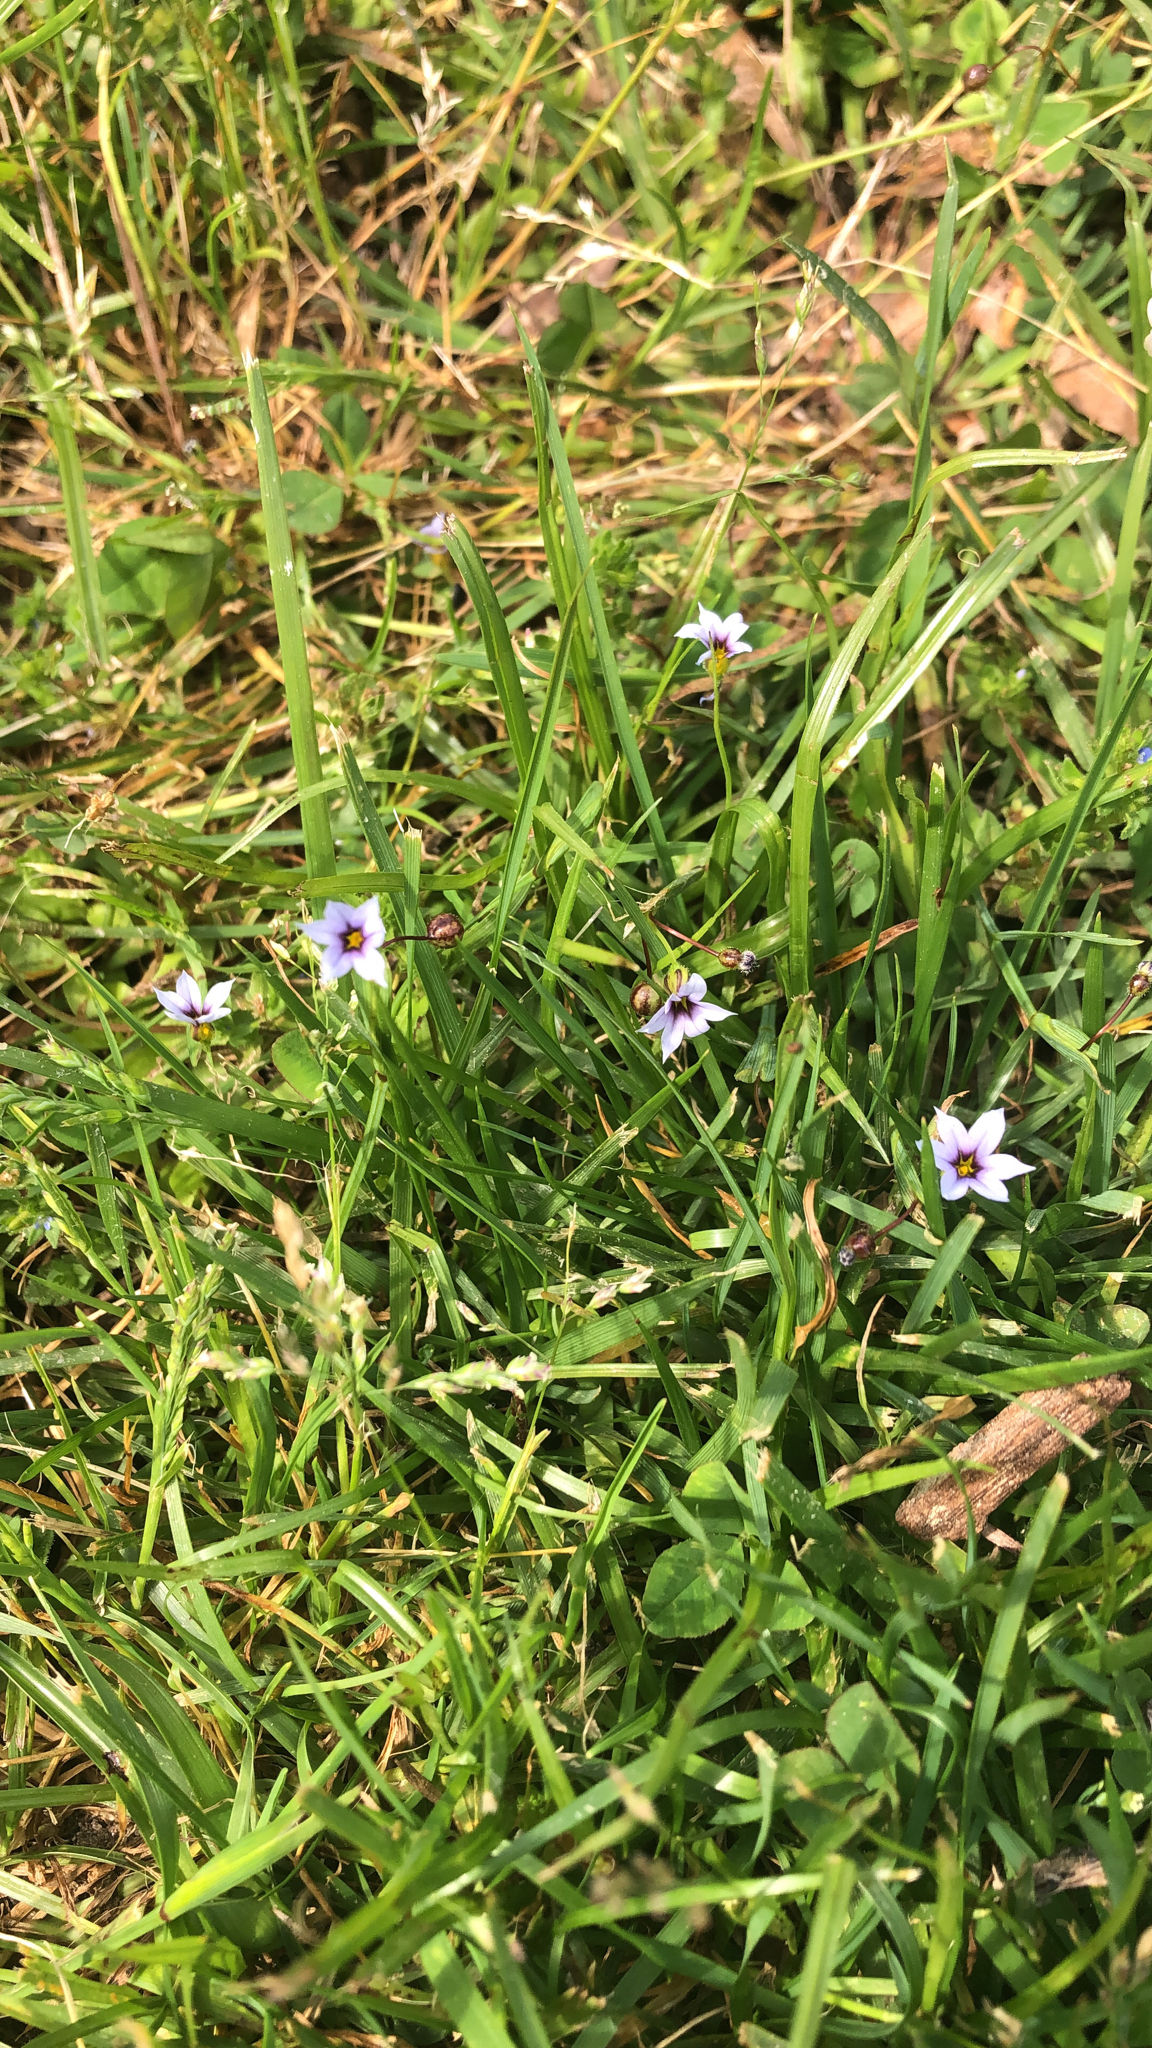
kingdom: Plantae
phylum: Tracheophyta
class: Liliopsida
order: Asparagales
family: Iridaceae
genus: Sisyrinchium
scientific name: Sisyrinchium micranthum
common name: Bermuda pigroot
